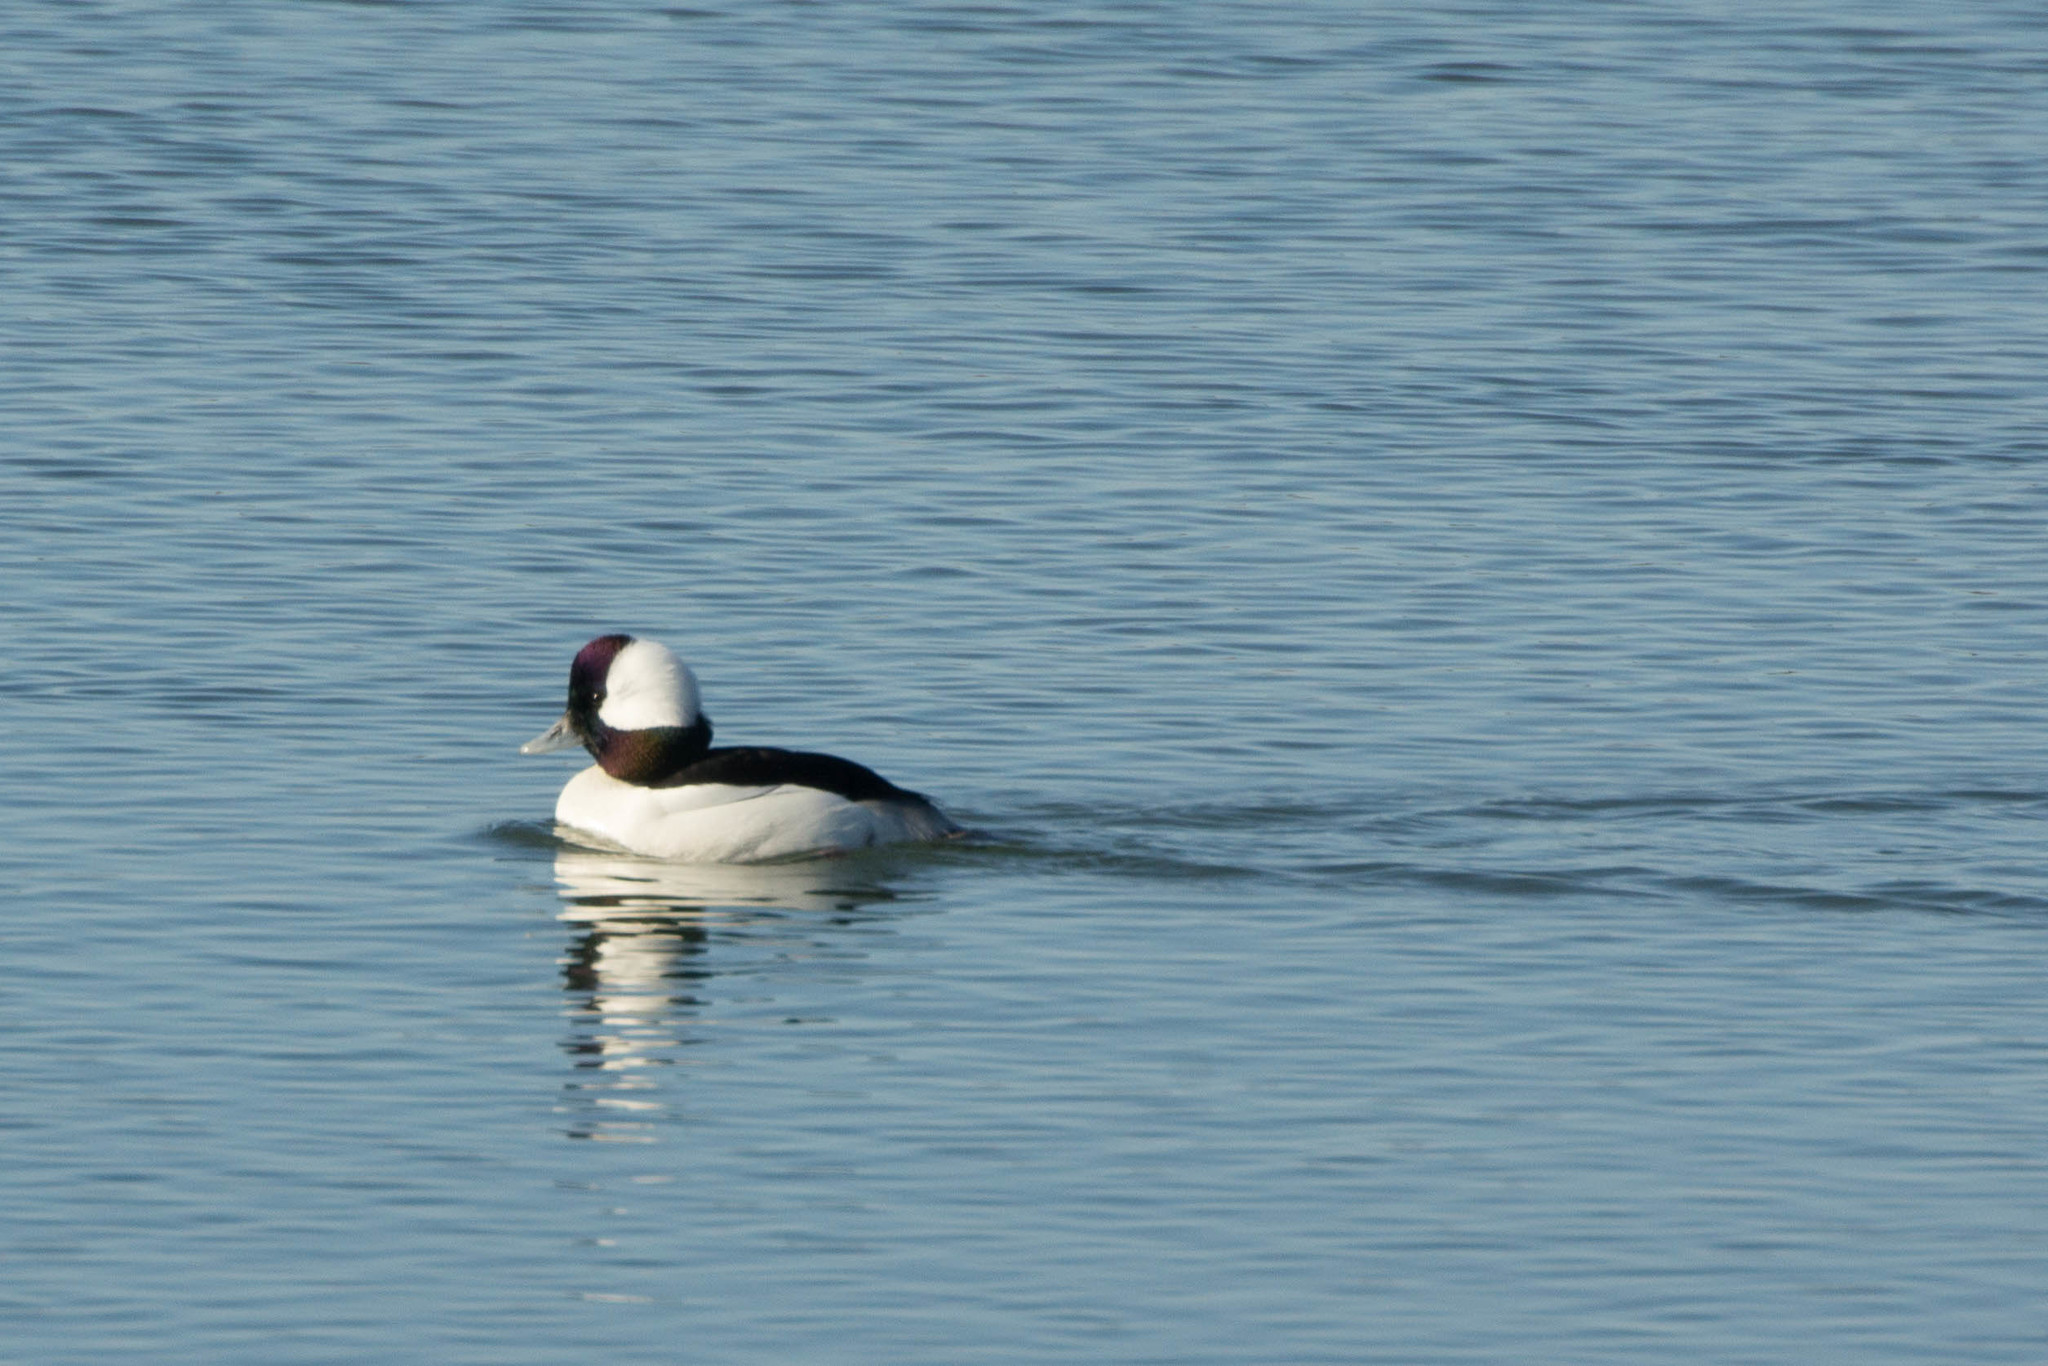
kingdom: Animalia
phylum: Chordata
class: Aves
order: Anseriformes
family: Anatidae
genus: Bucephala
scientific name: Bucephala albeola
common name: Bufflehead
